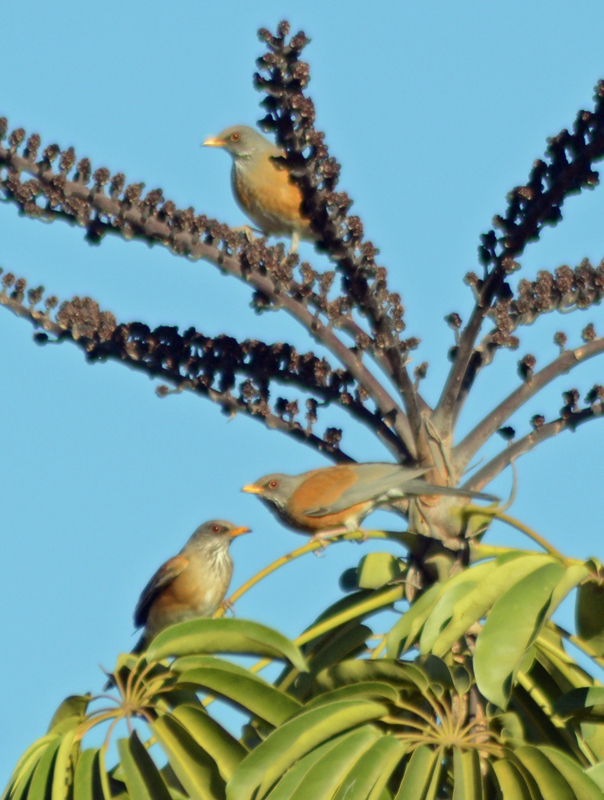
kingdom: Animalia
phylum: Chordata
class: Aves
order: Passeriformes
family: Turdidae
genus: Turdus
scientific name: Turdus rufopalliatus
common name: Rufous-backed robin
